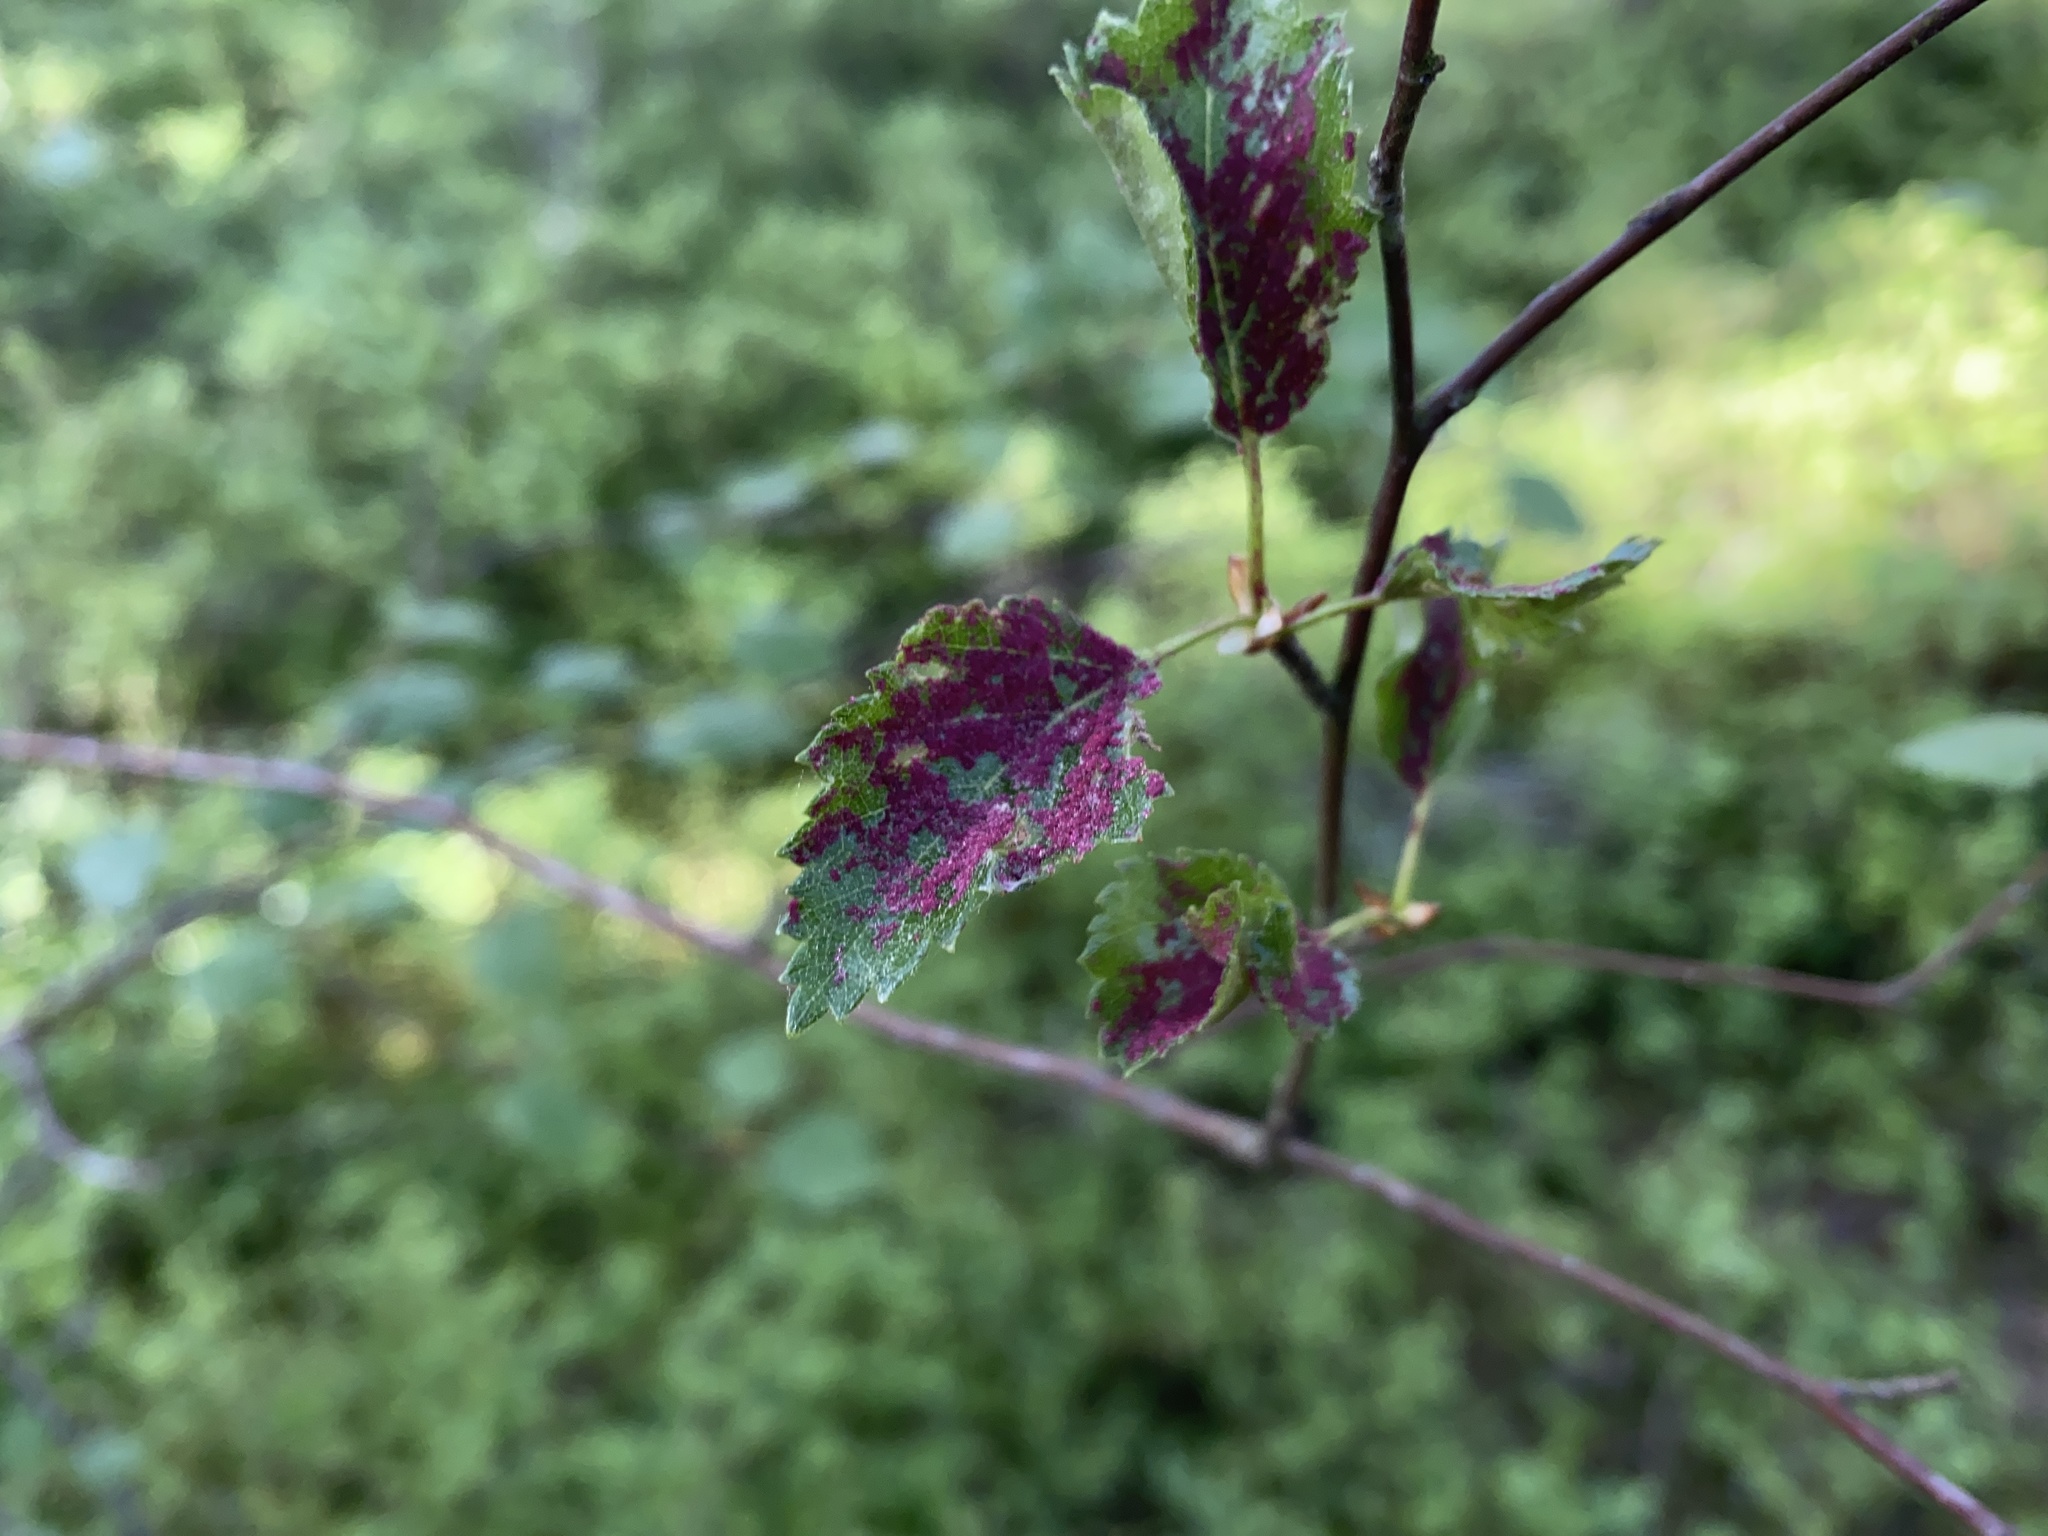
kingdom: Animalia
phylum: Arthropoda
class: Arachnida
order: Trombidiformes
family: Eriophyidae
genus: Acalitus
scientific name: Acalitus longisetosus
